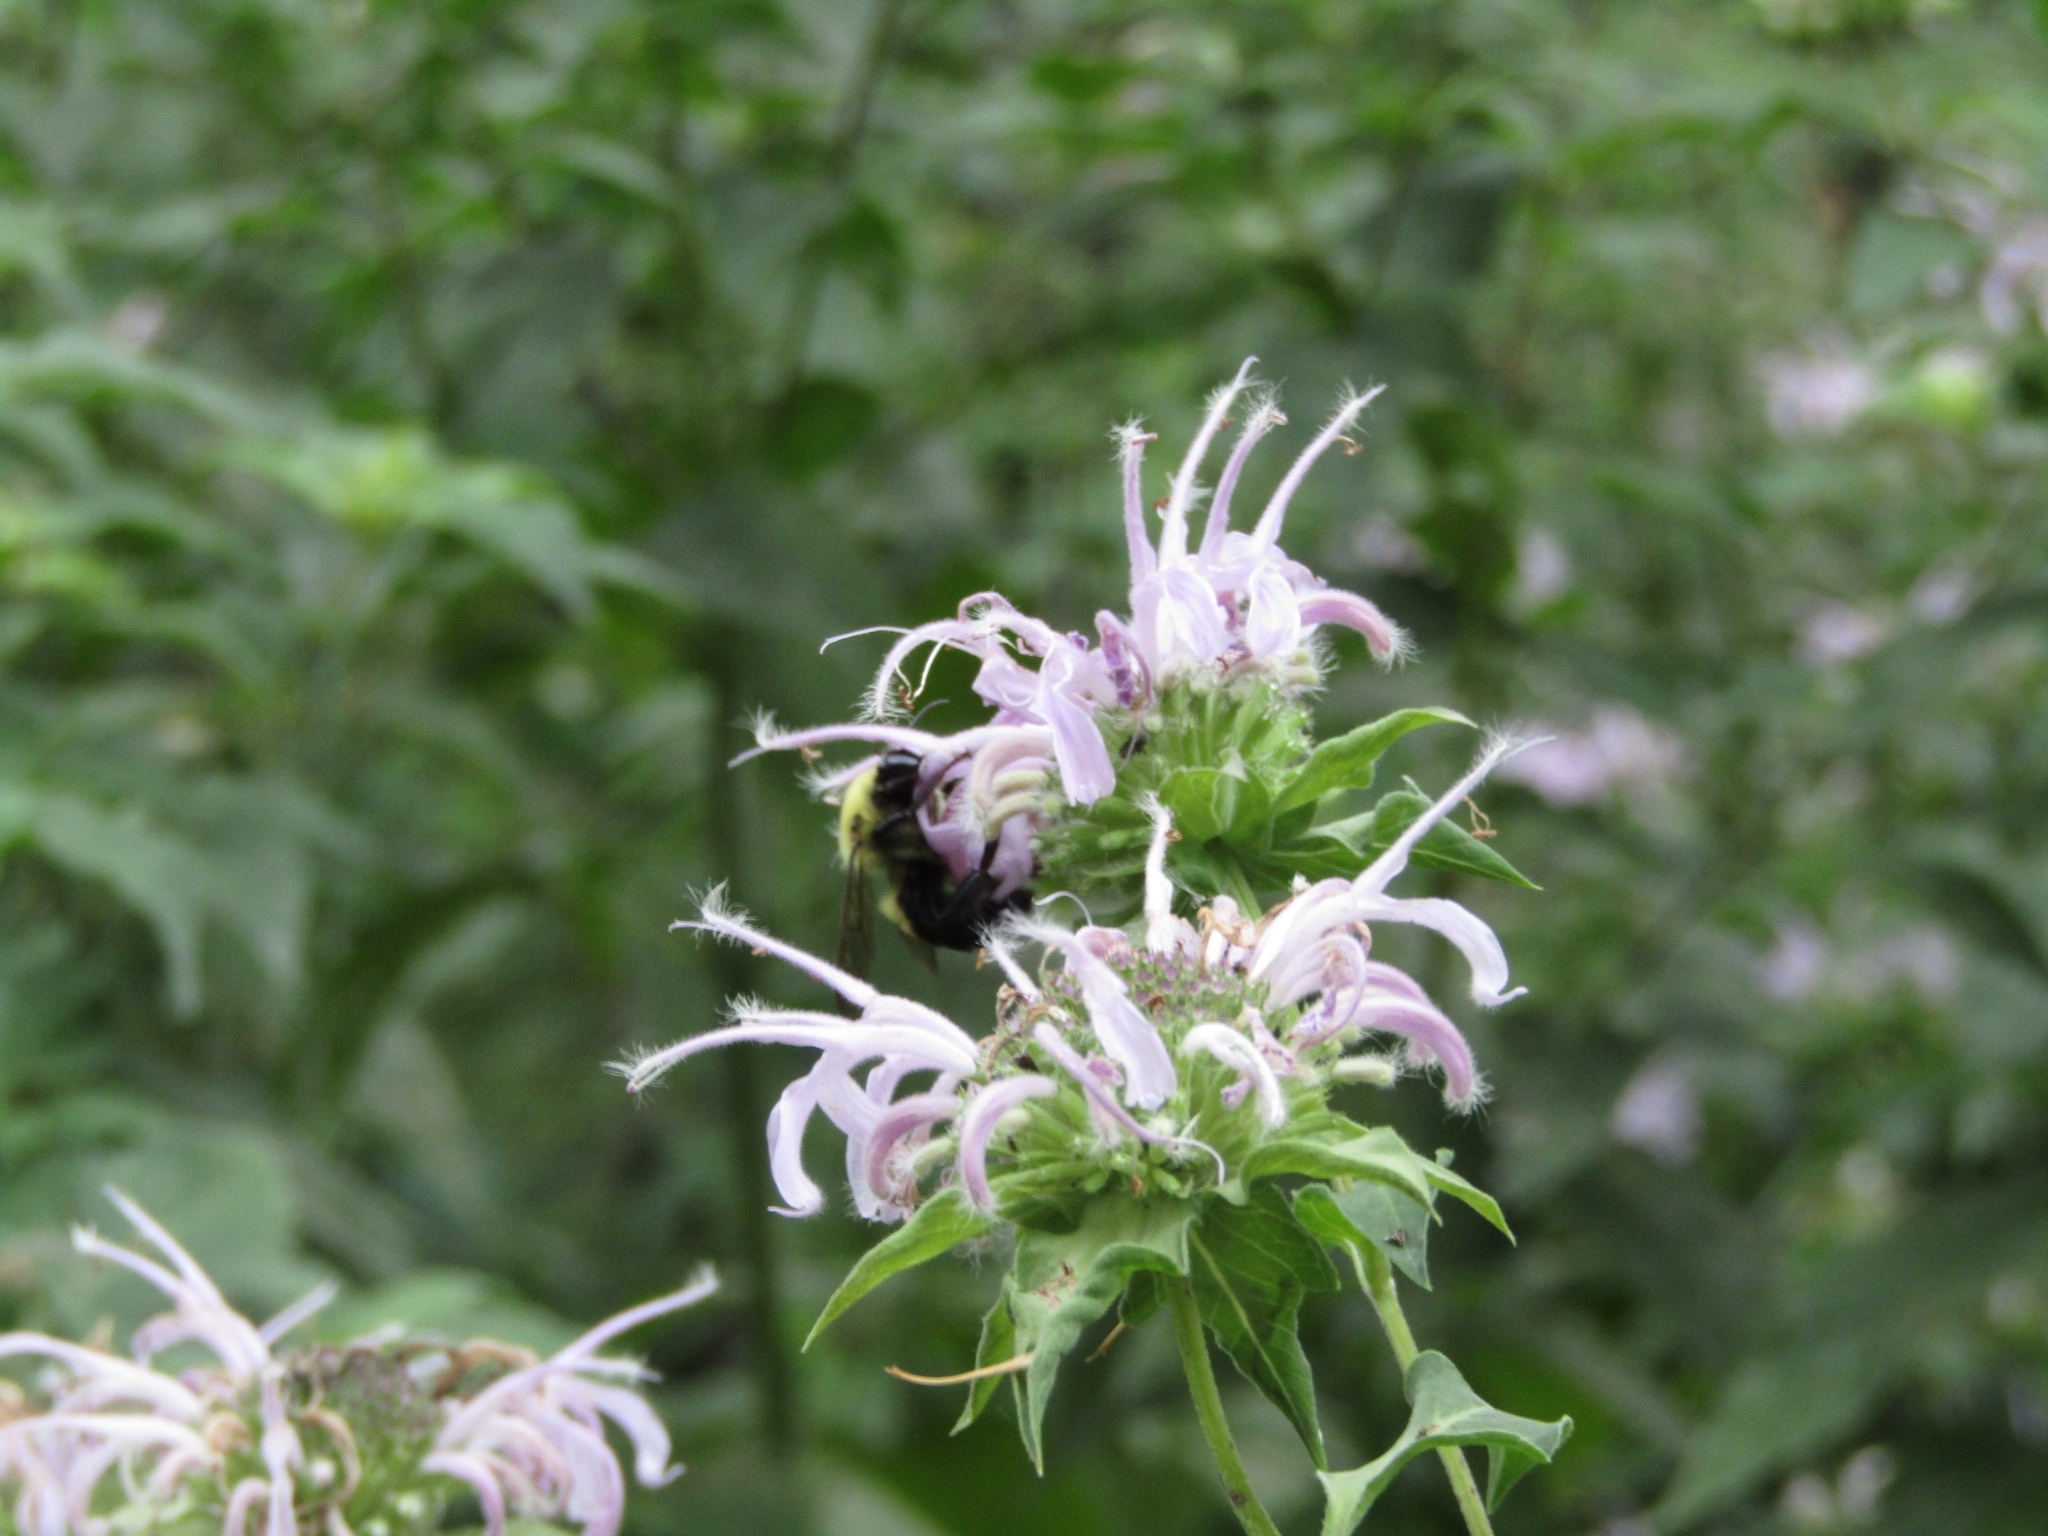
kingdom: Animalia
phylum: Arthropoda
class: Insecta
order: Hymenoptera
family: Apidae
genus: Bombus
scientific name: Bombus griseocollis
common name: Brown-belted bumble bee
